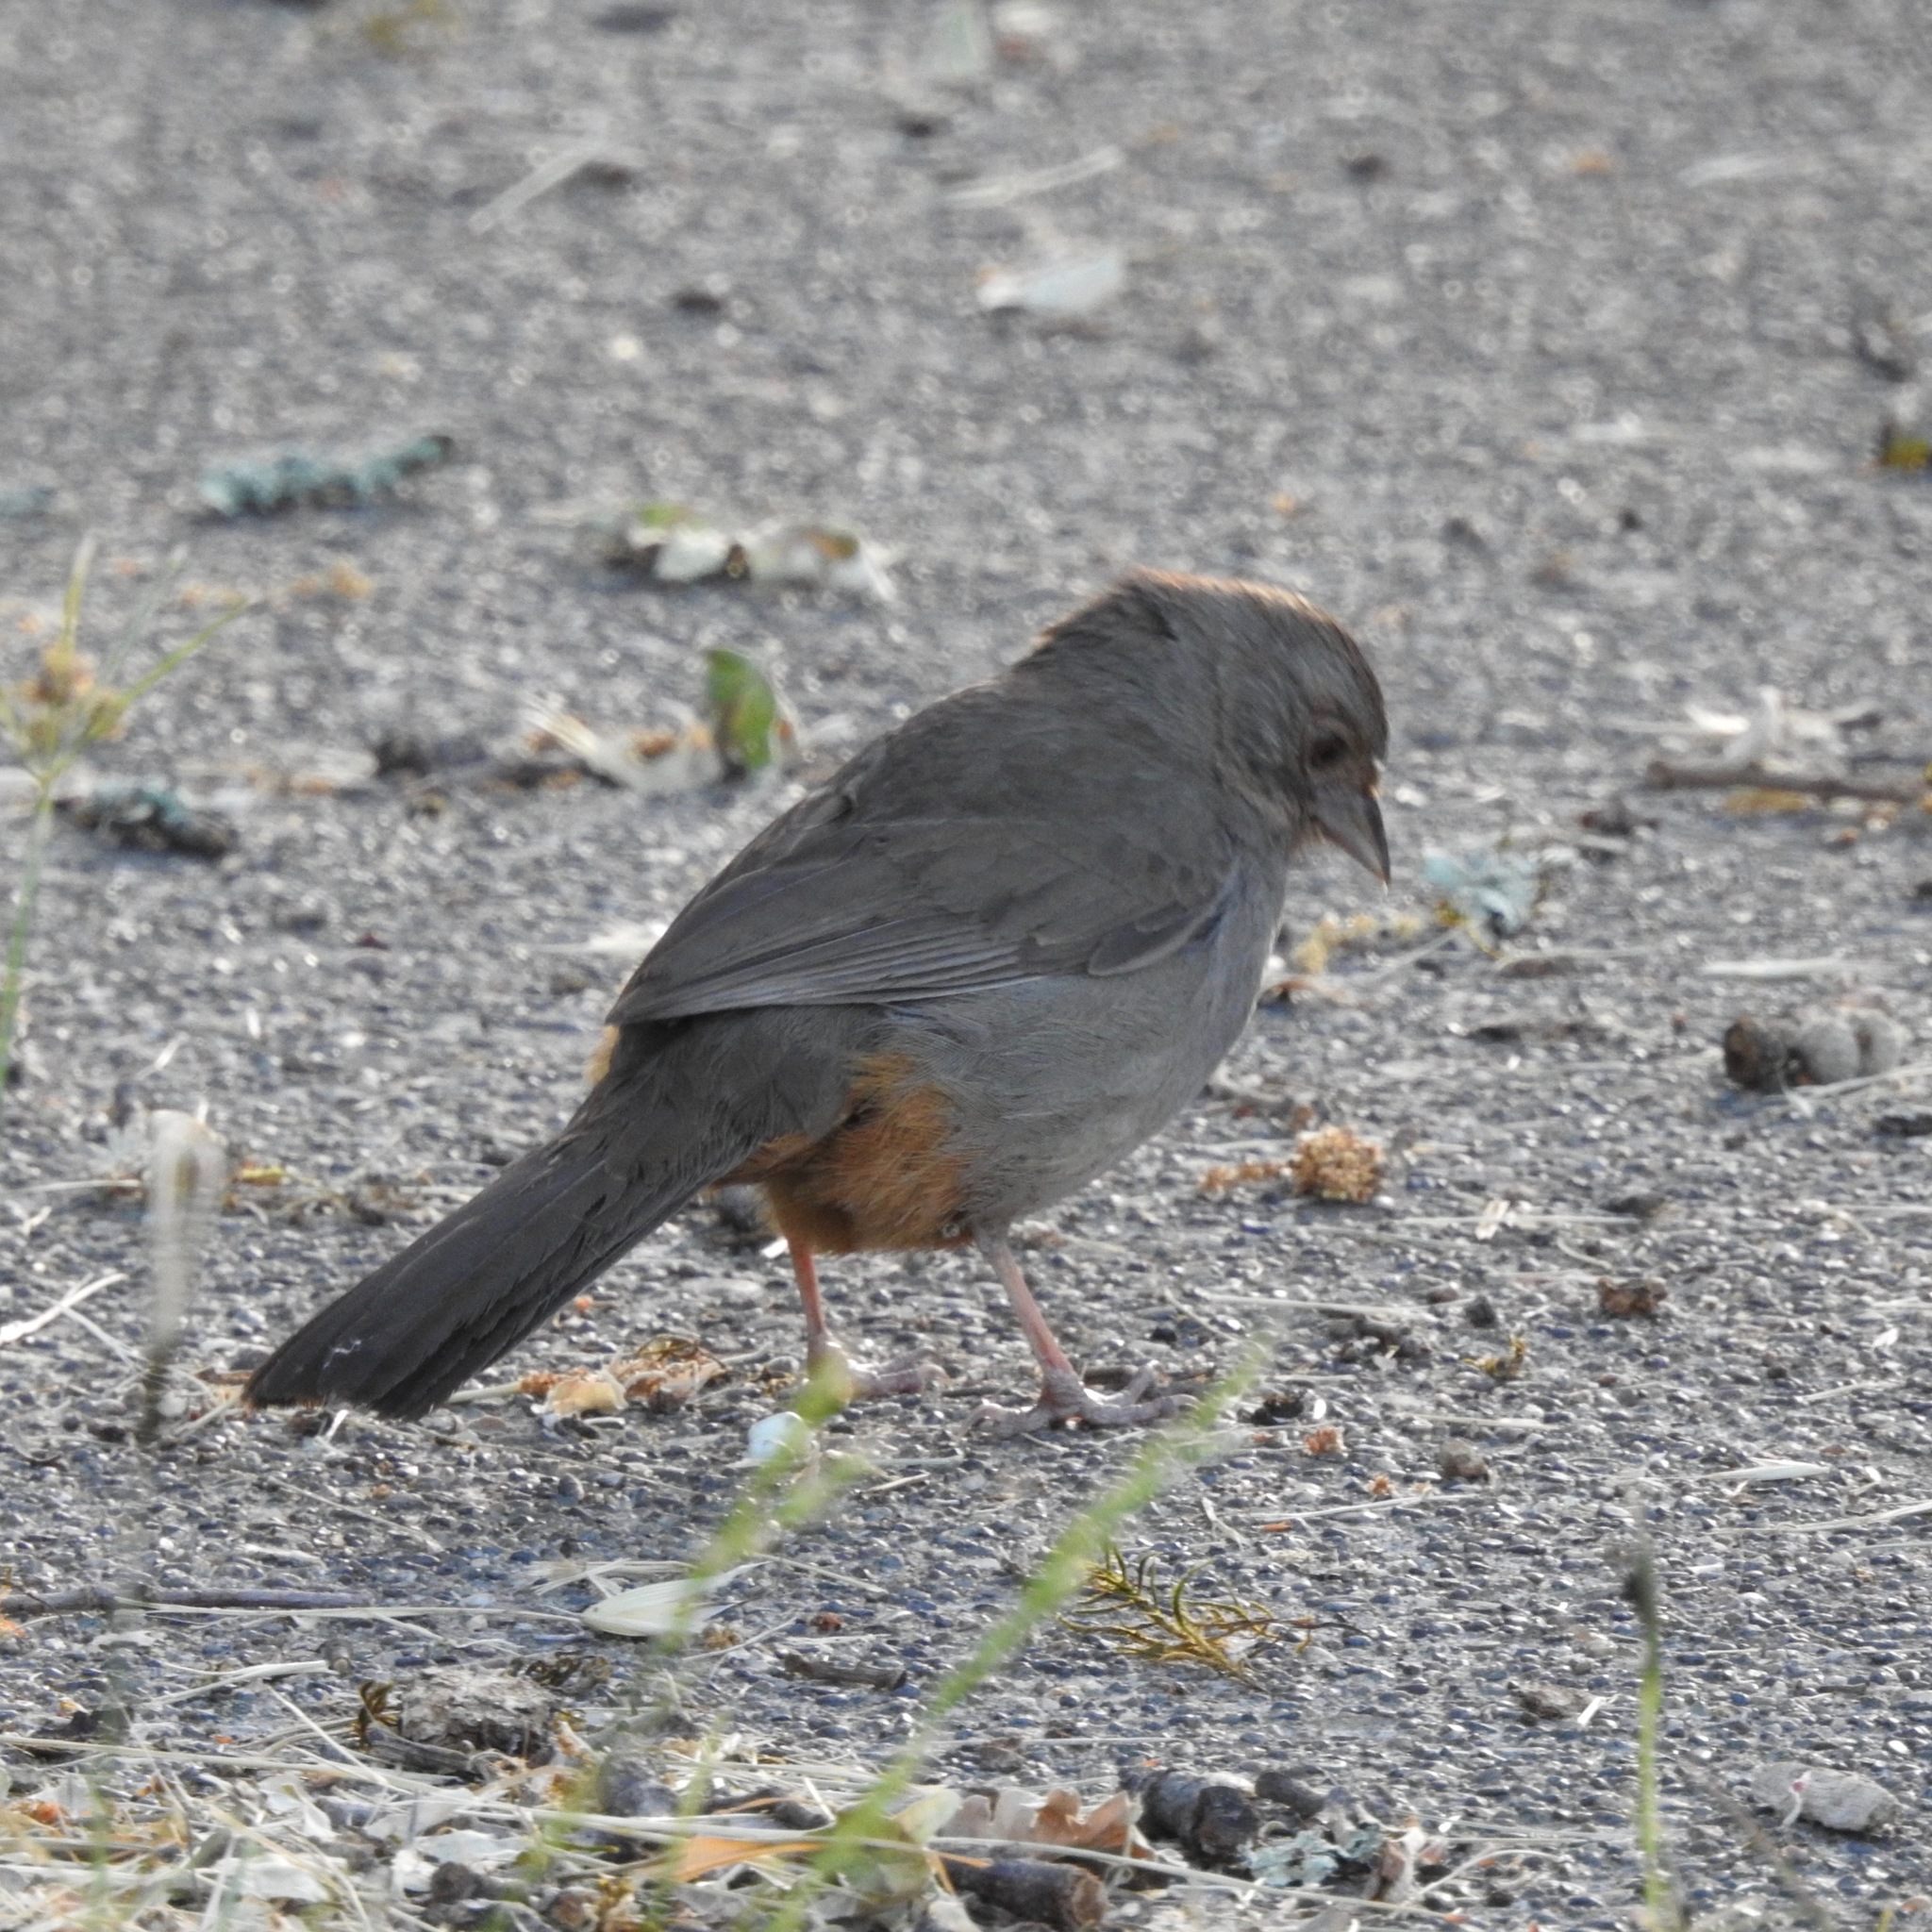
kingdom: Animalia
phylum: Chordata
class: Aves
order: Passeriformes
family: Passerellidae
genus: Melozone
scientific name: Melozone crissalis
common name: California towhee
